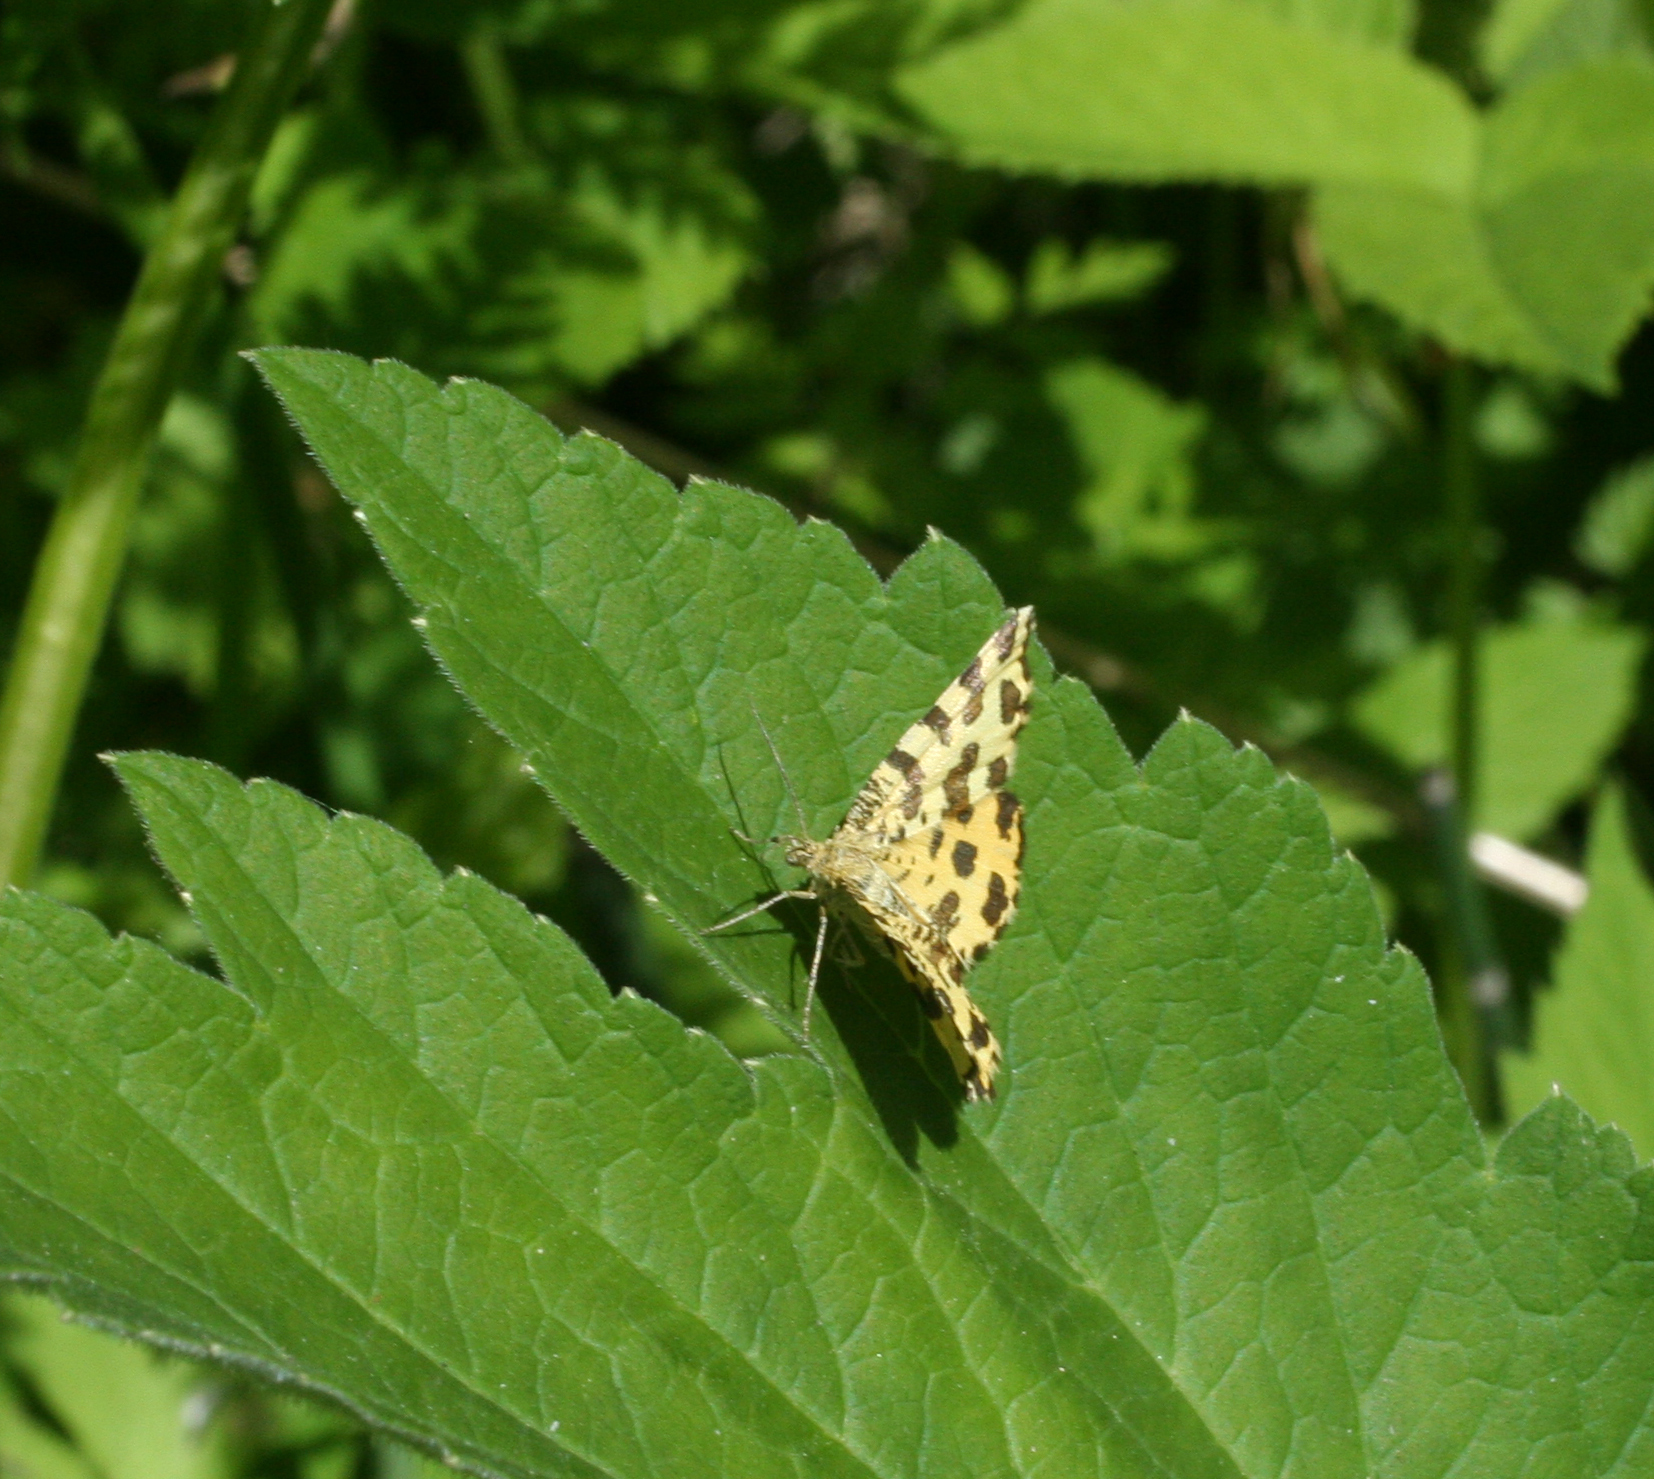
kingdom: Animalia
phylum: Arthropoda
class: Insecta
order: Lepidoptera
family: Geometridae
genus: Pseudopanthera
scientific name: Pseudopanthera macularia
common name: Speckled yellow
